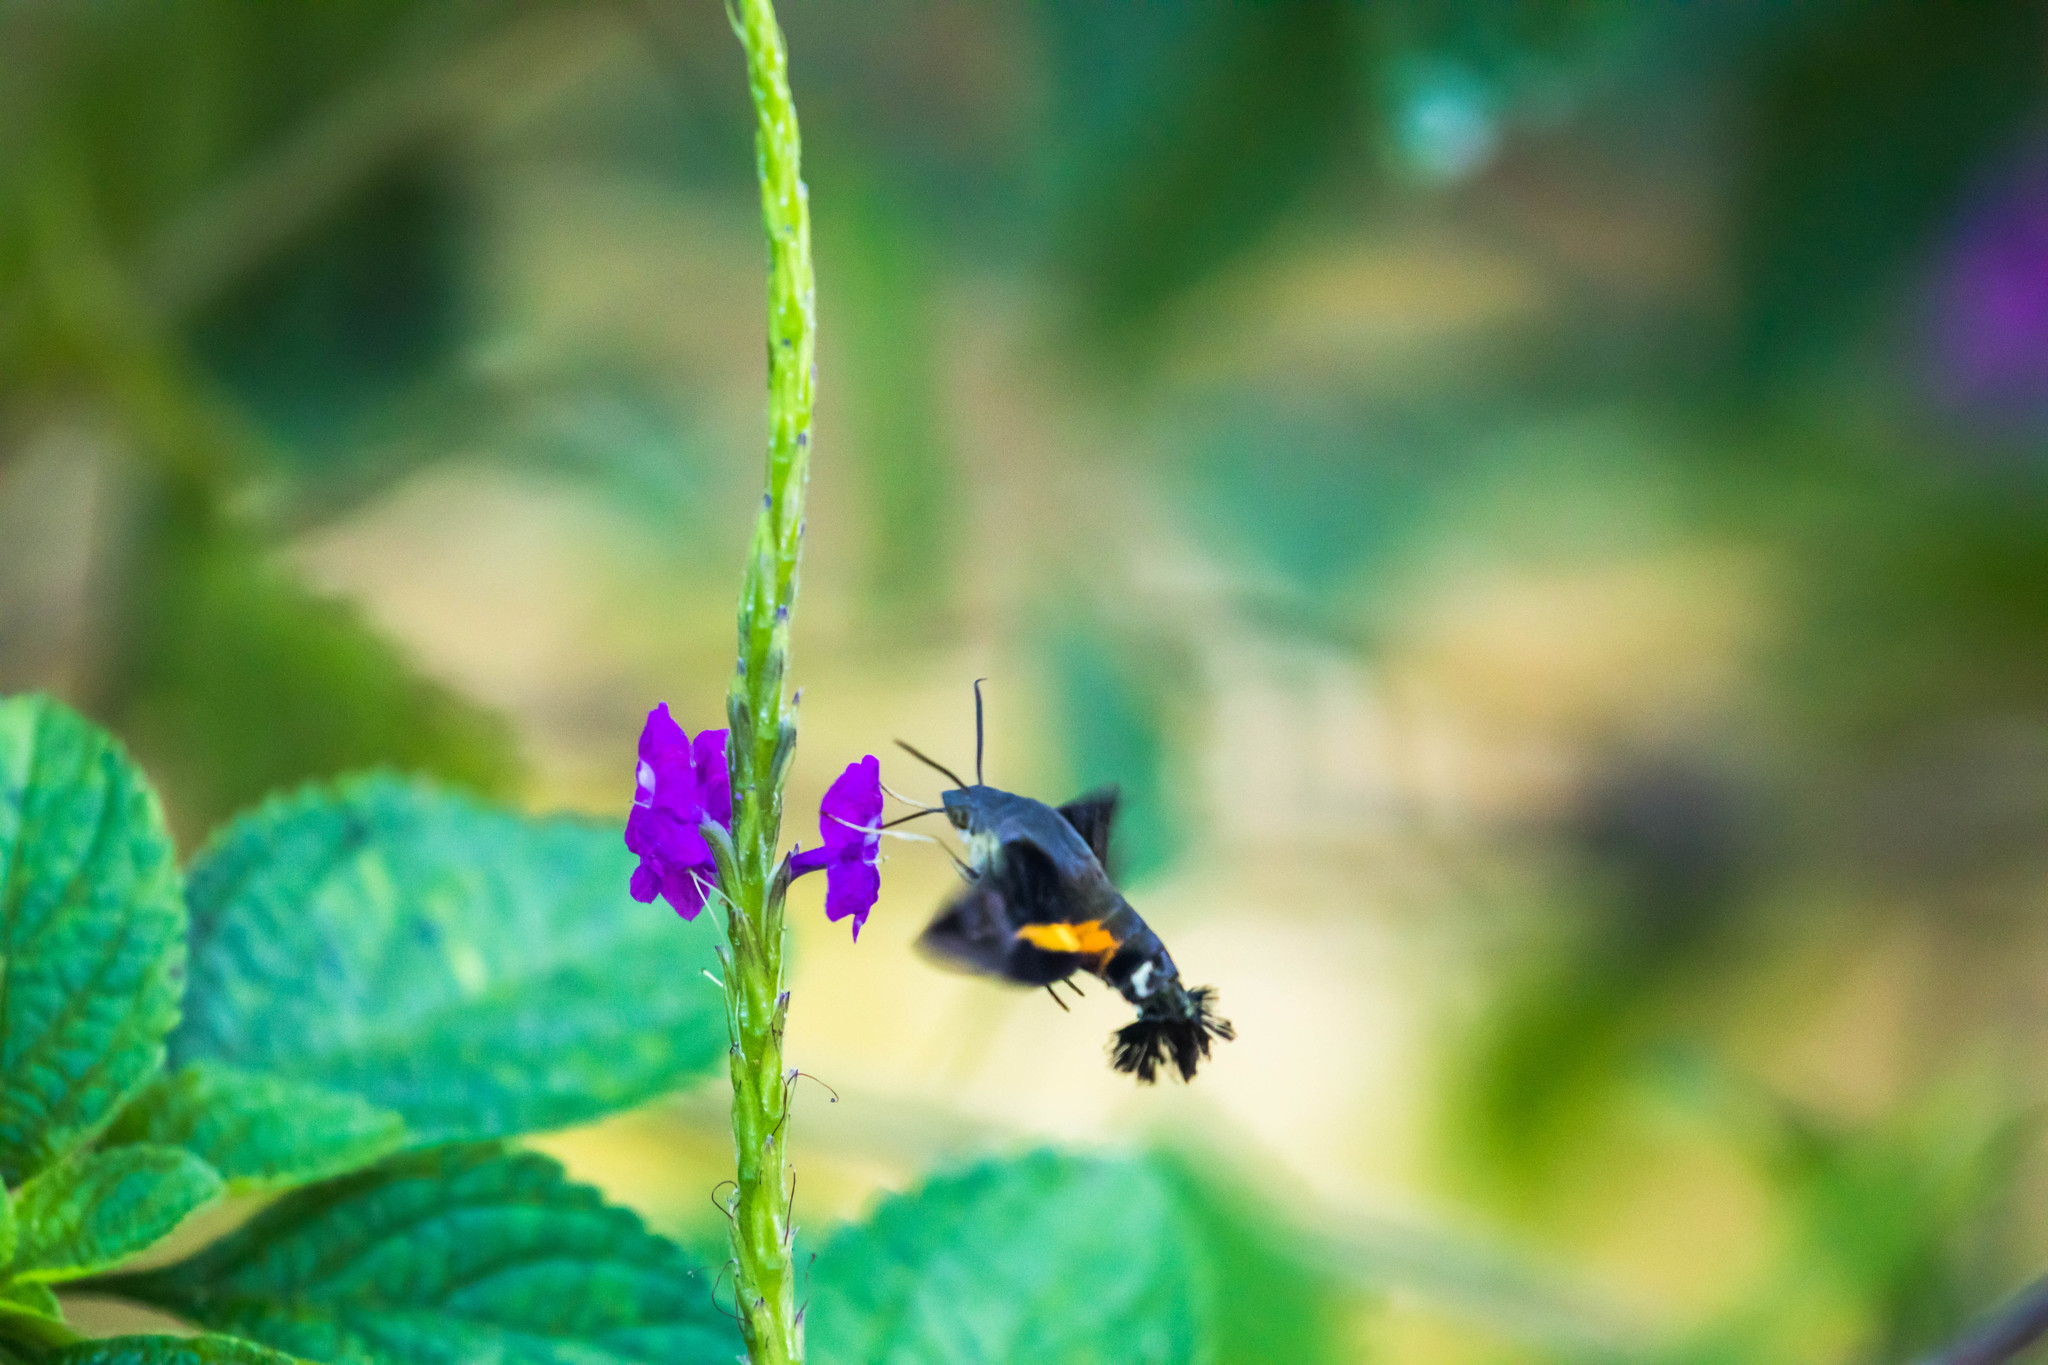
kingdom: Animalia
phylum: Arthropoda
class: Insecta
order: Lepidoptera
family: Sphingidae
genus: Aellopos
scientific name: Aellopos ceculus
